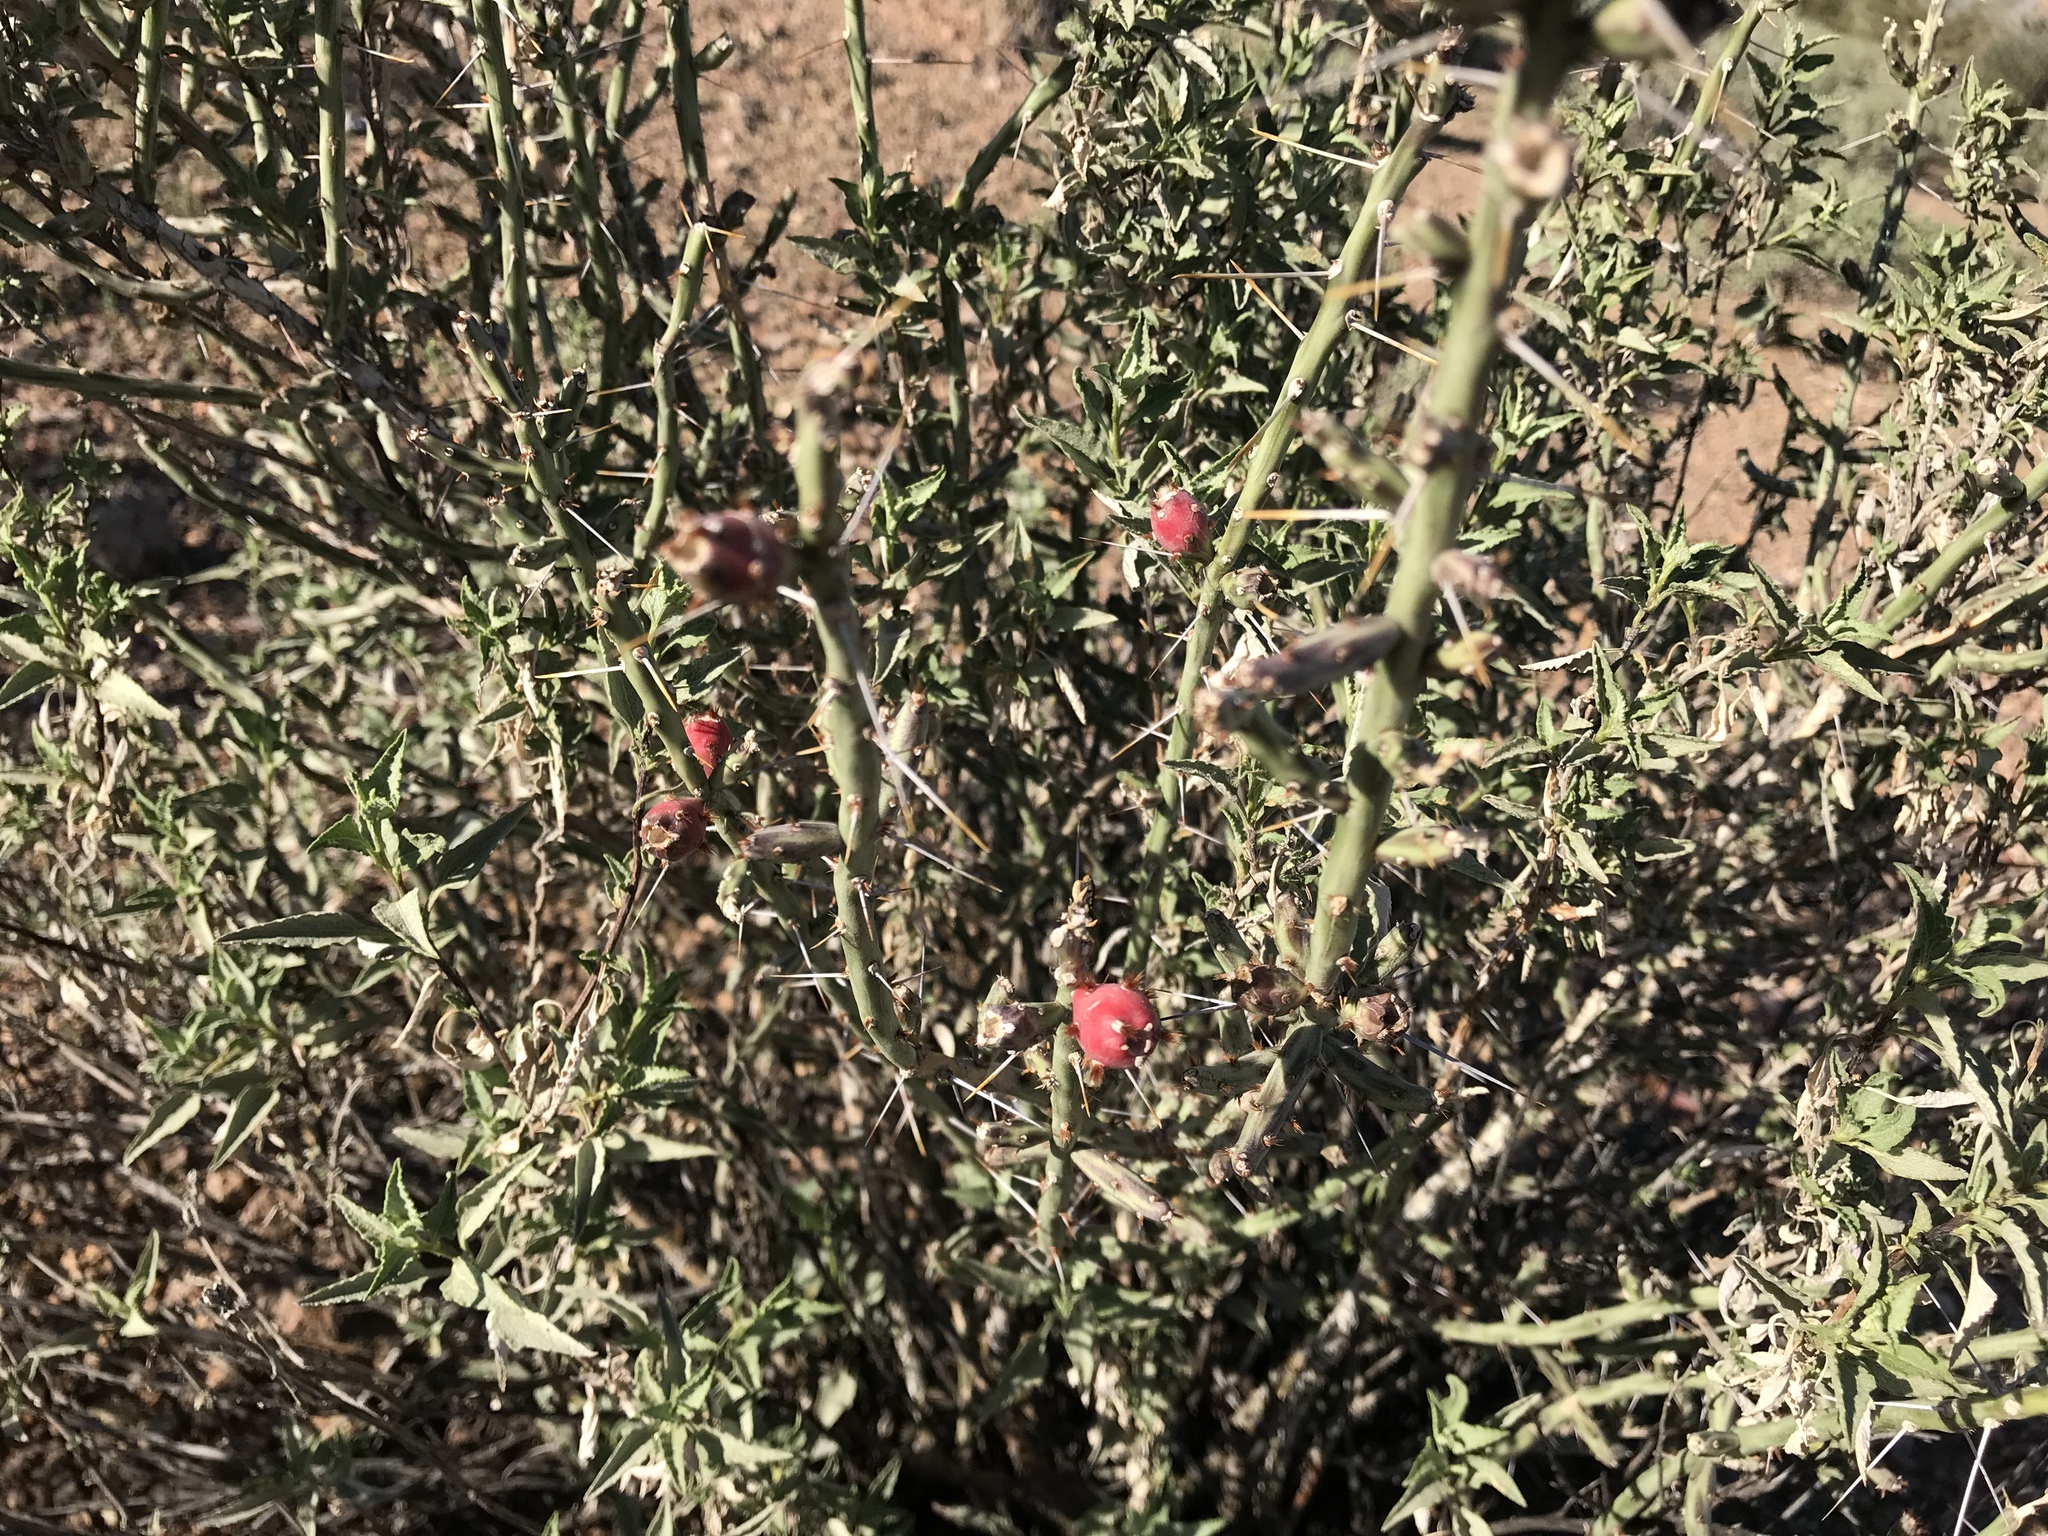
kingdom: Plantae
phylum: Tracheophyta
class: Magnoliopsida
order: Caryophyllales
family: Cactaceae
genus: Cylindropuntia
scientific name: Cylindropuntia leptocaulis
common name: Christmas cactus
